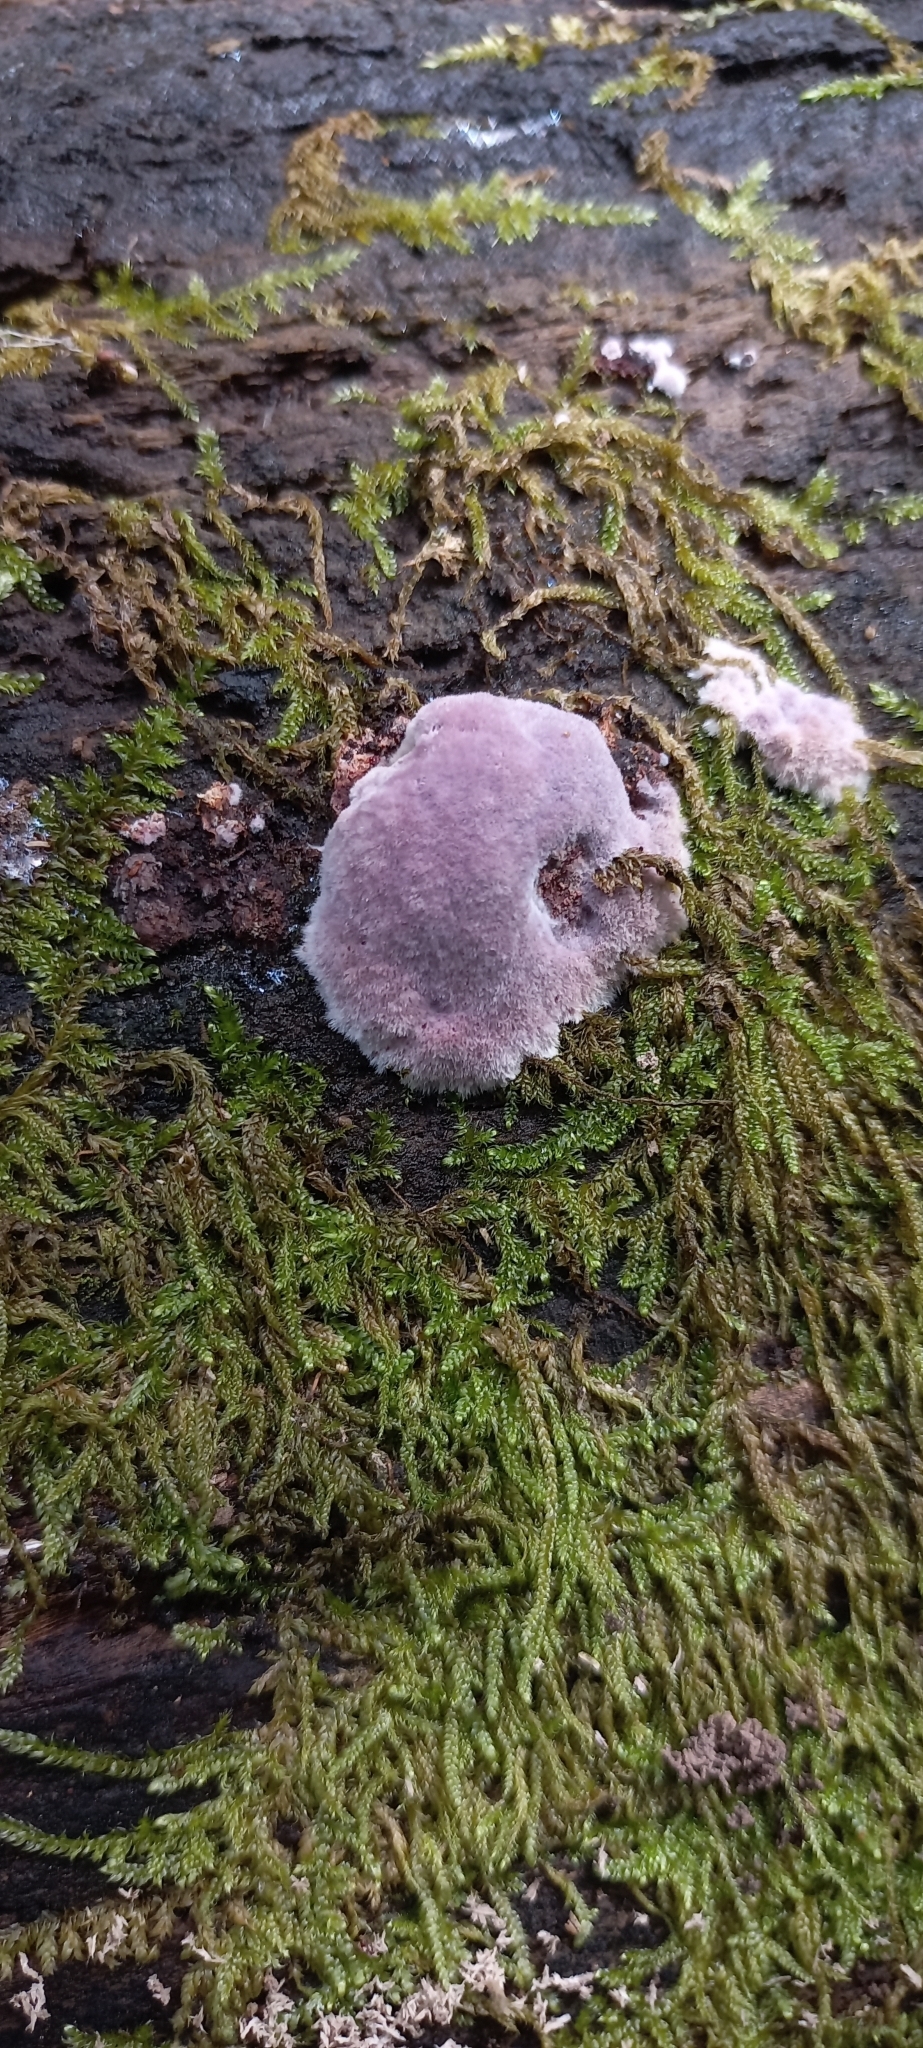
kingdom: Fungi
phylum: Basidiomycota
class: Agaricomycetes
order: Corticiales
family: Punctulariaceae
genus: Punctularia
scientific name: Punctularia atropurpurascens
